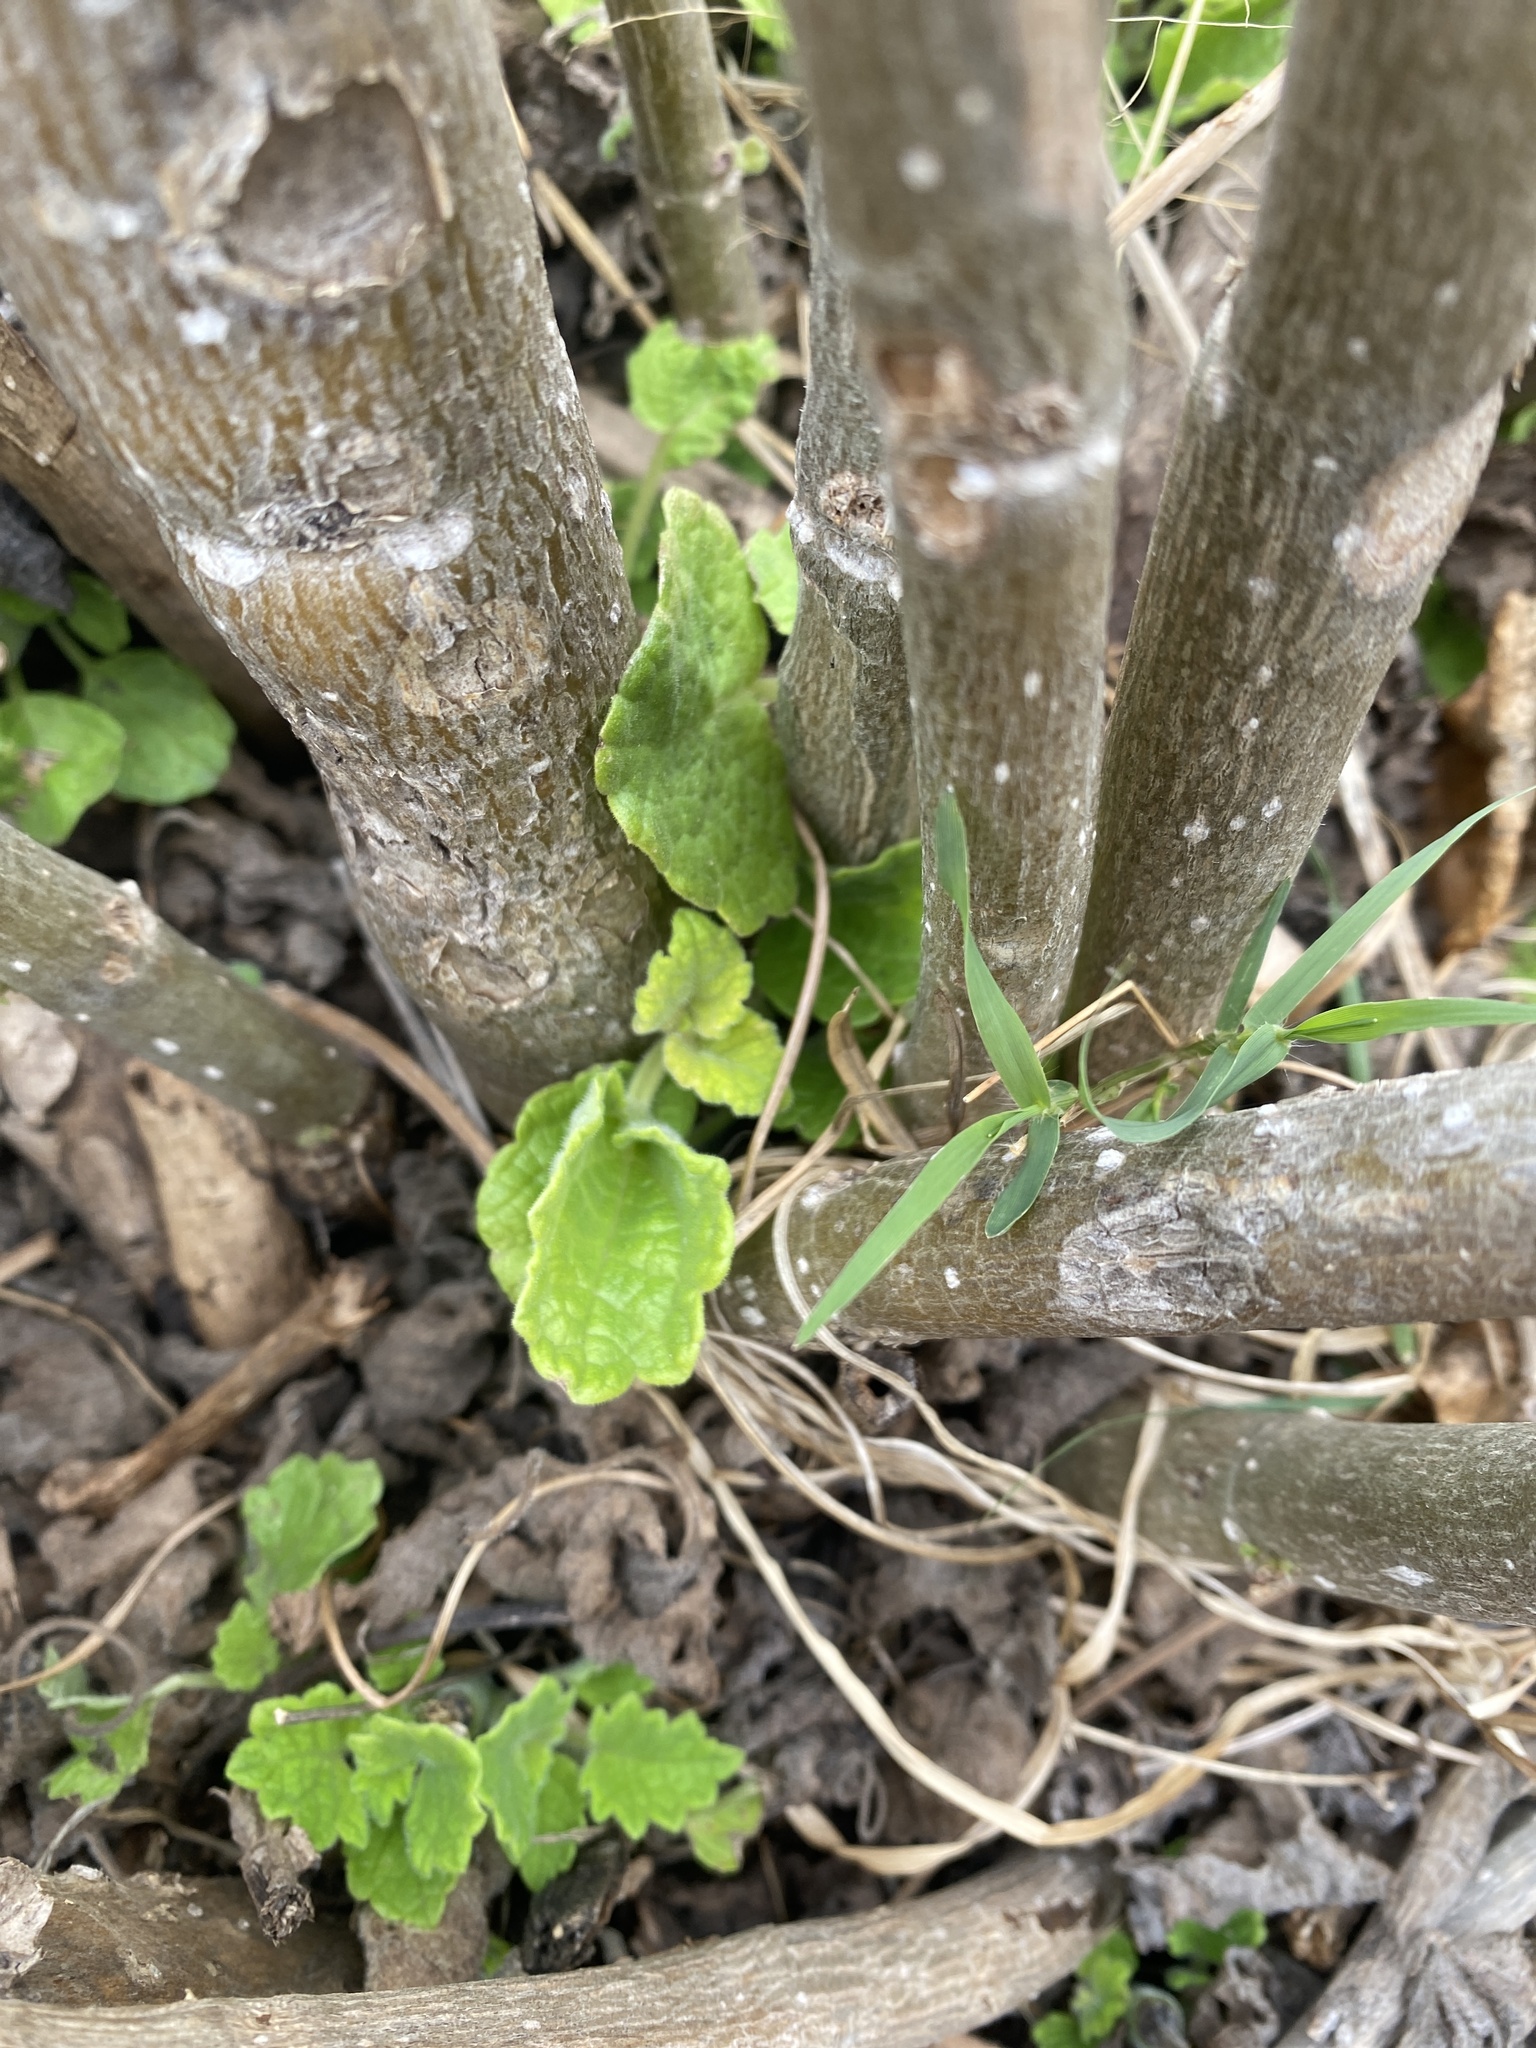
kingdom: Plantae
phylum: Tracheophyta
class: Magnoliopsida
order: Lamiales
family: Lamiaceae
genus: Tetradenia
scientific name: Tetradenia riparia
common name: Gingerbush
